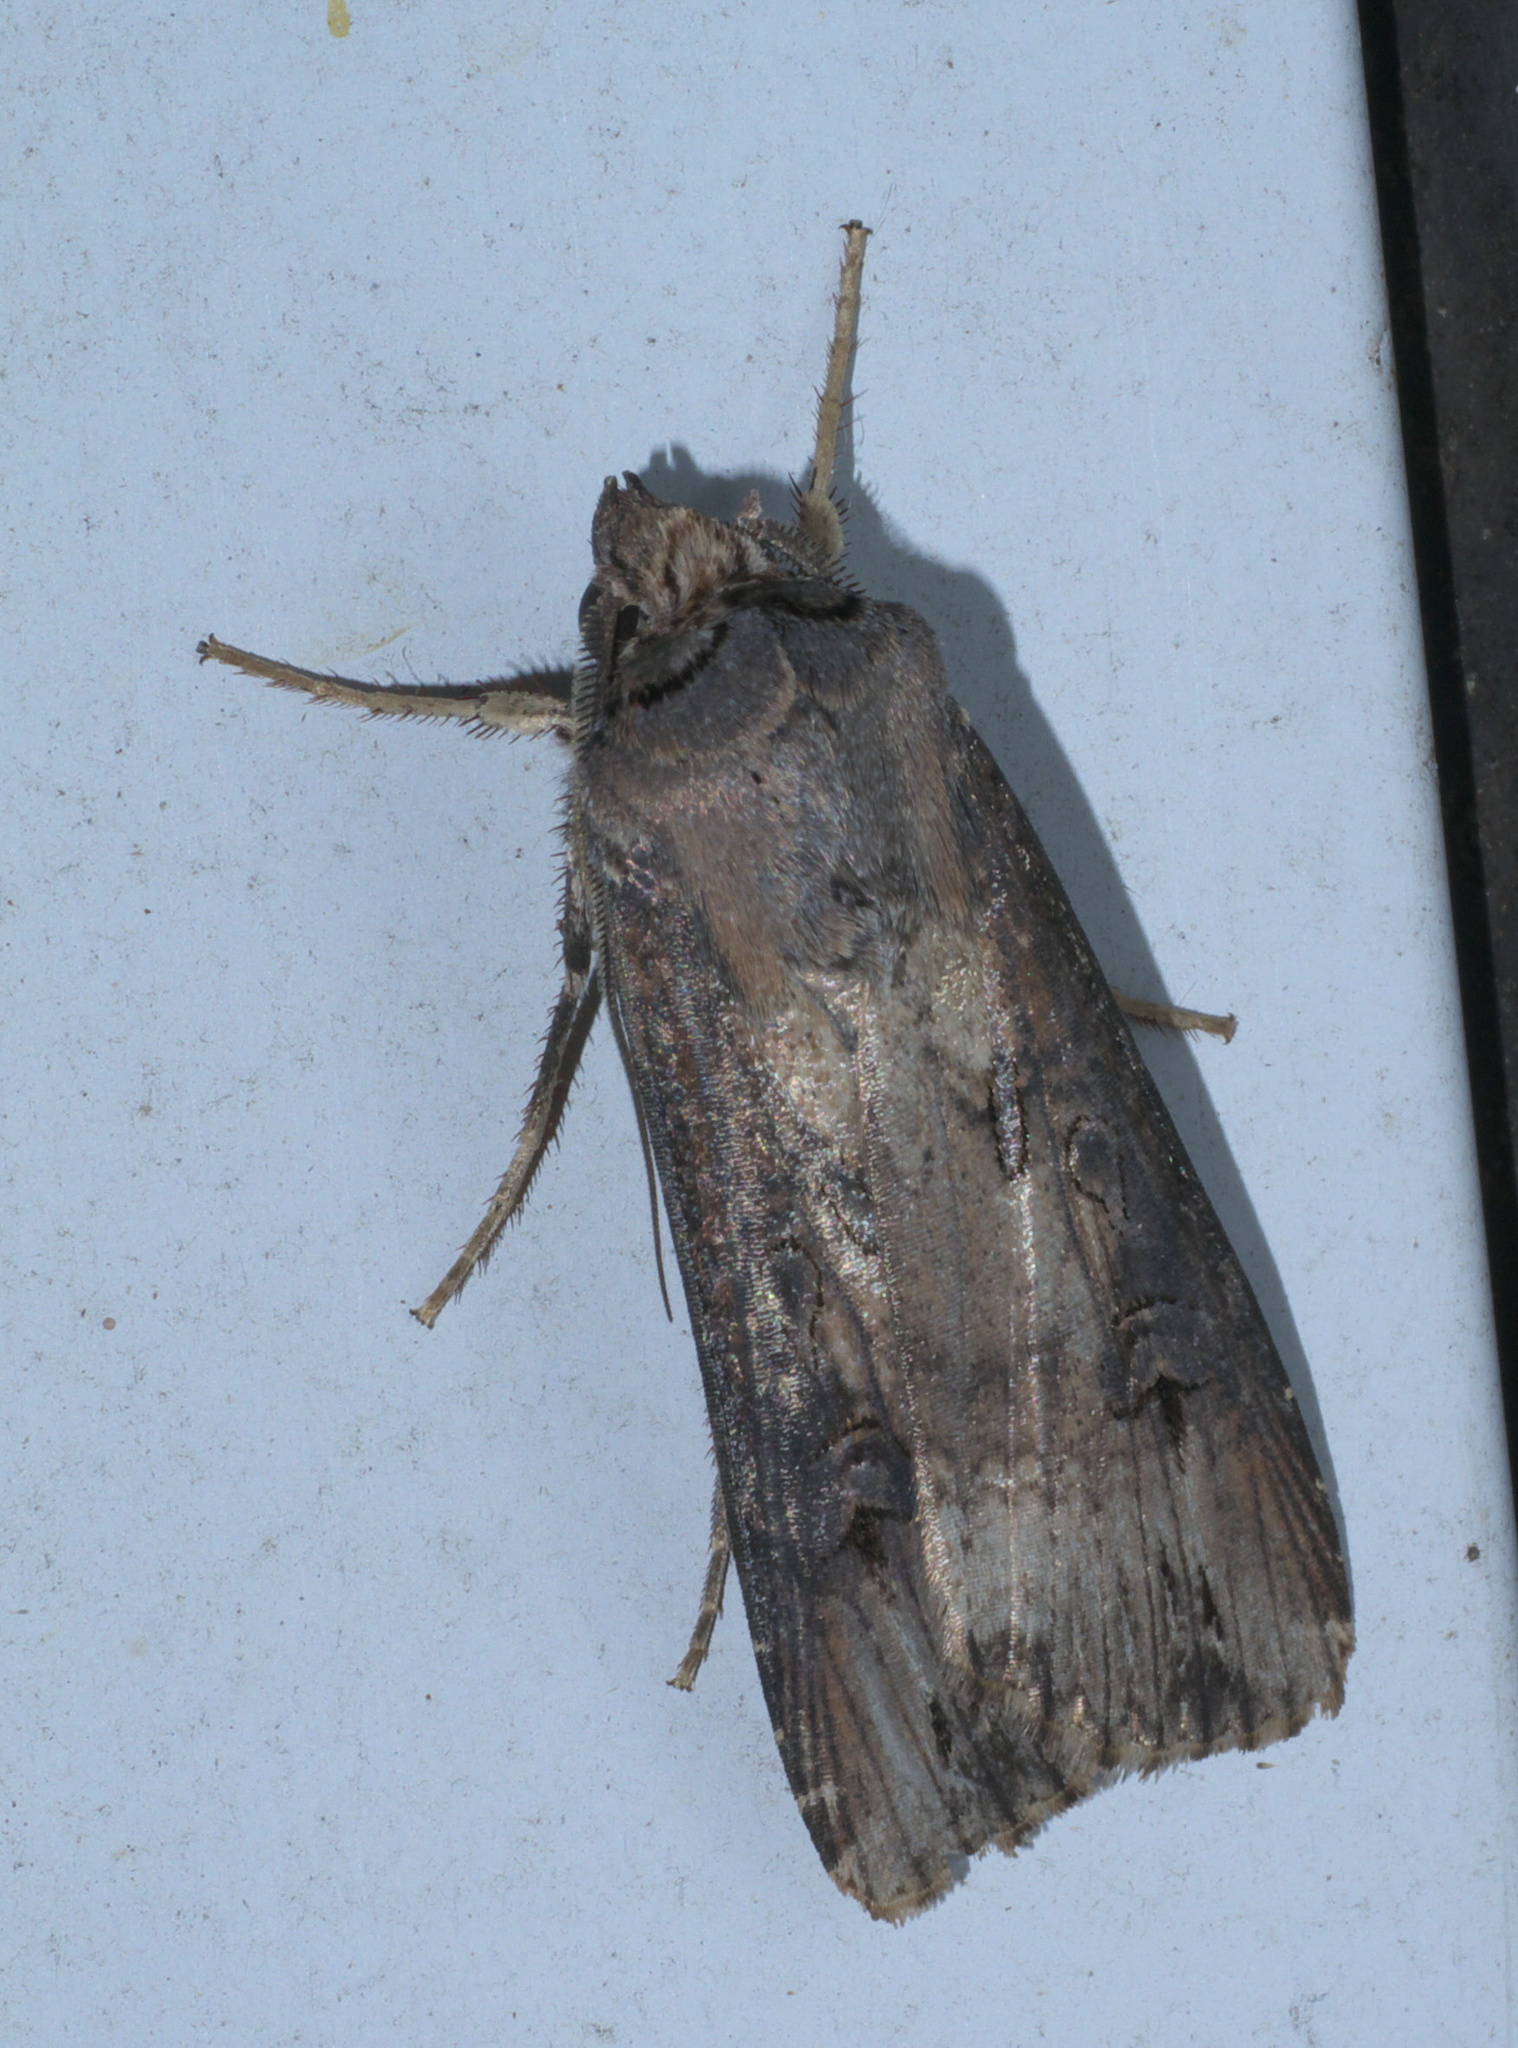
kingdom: Animalia
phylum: Arthropoda
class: Insecta
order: Lepidoptera
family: Noctuidae
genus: Agrotis
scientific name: Agrotis ipsilon
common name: Dark sword-grass
